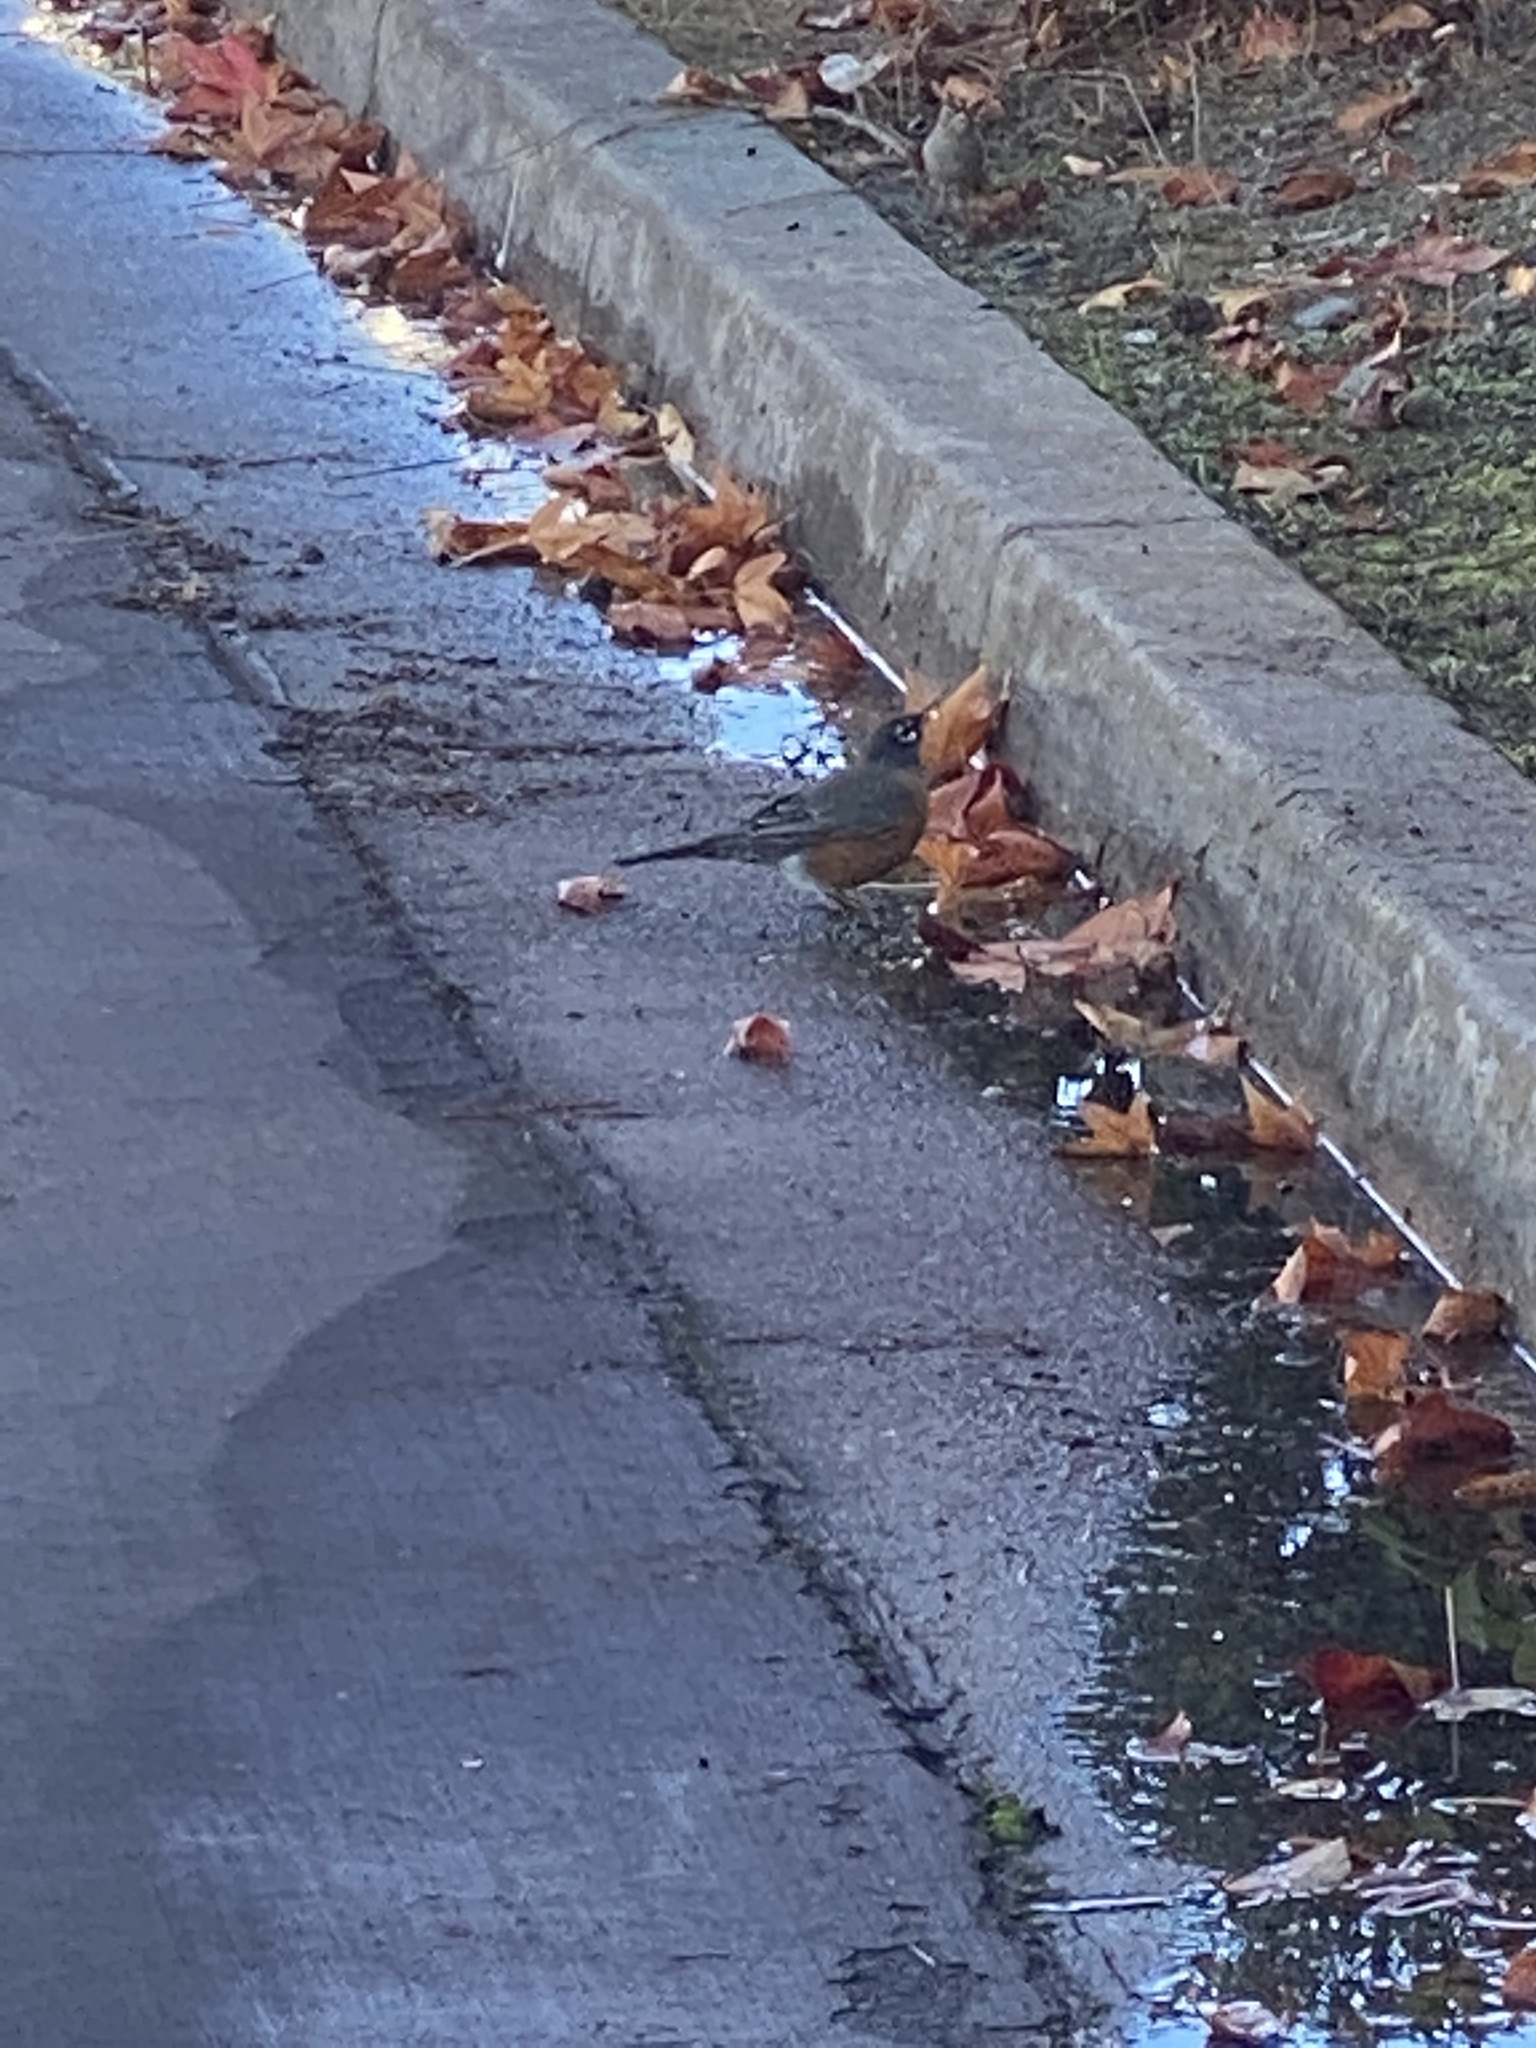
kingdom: Animalia
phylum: Chordata
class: Aves
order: Passeriformes
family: Turdidae
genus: Turdus
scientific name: Turdus migratorius
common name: American robin
